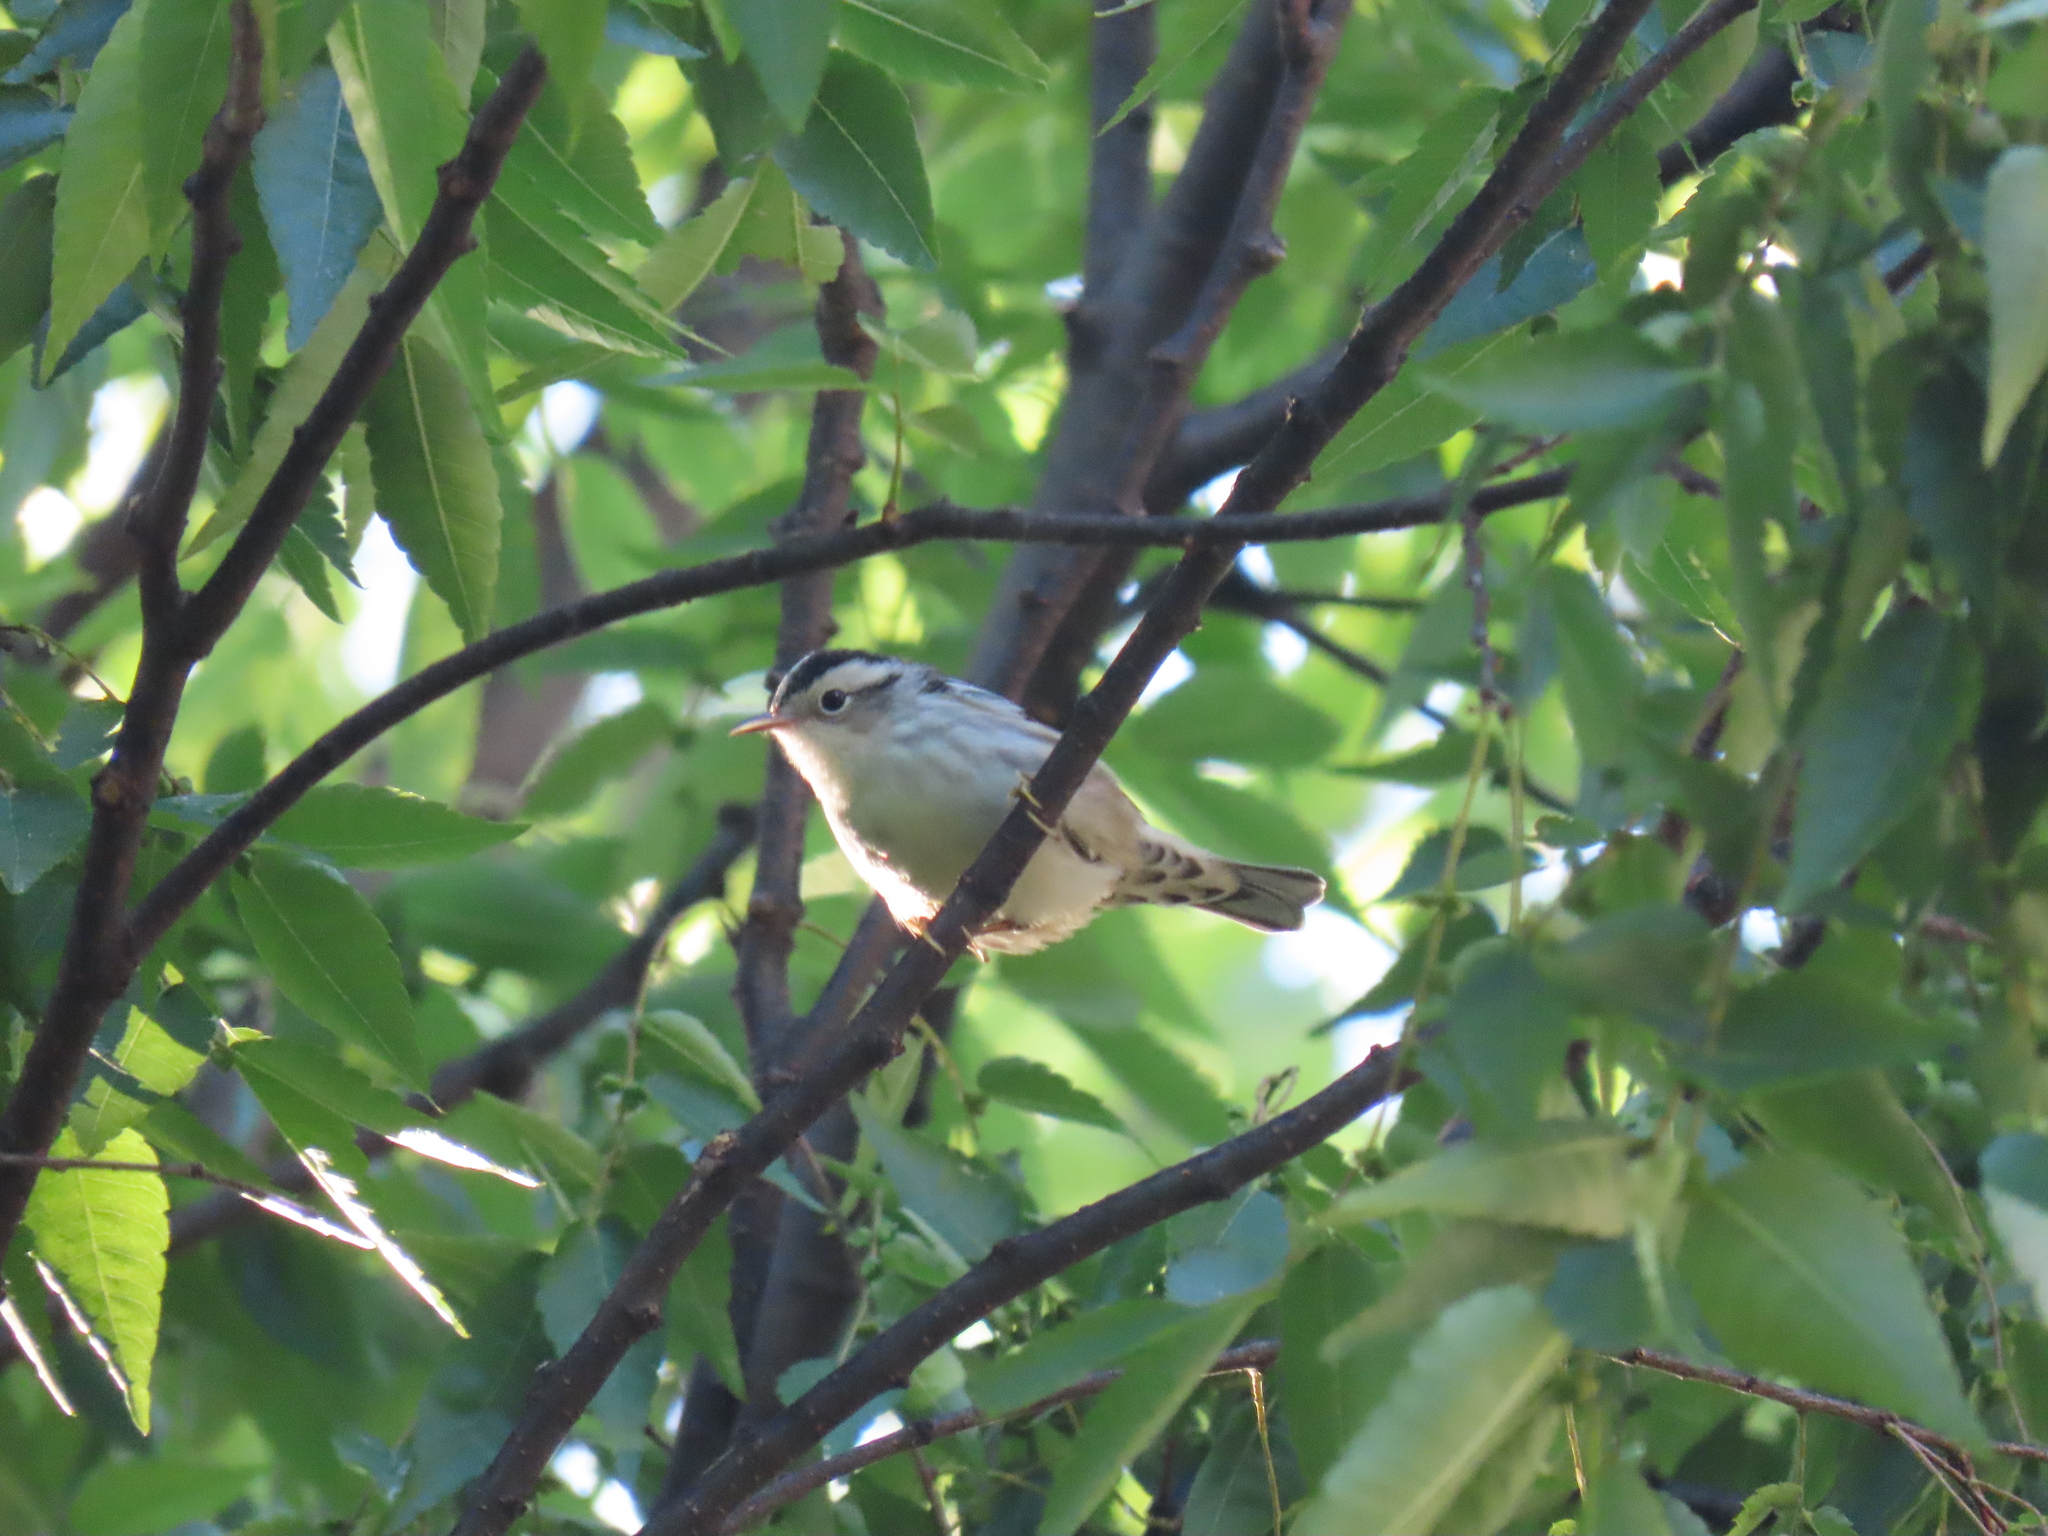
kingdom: Animalia
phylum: Chordata
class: Aves
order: Passeriformes
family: Parulidae
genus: Mniotilta
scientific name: Mniotilta varia
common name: Black-and-white warbler
